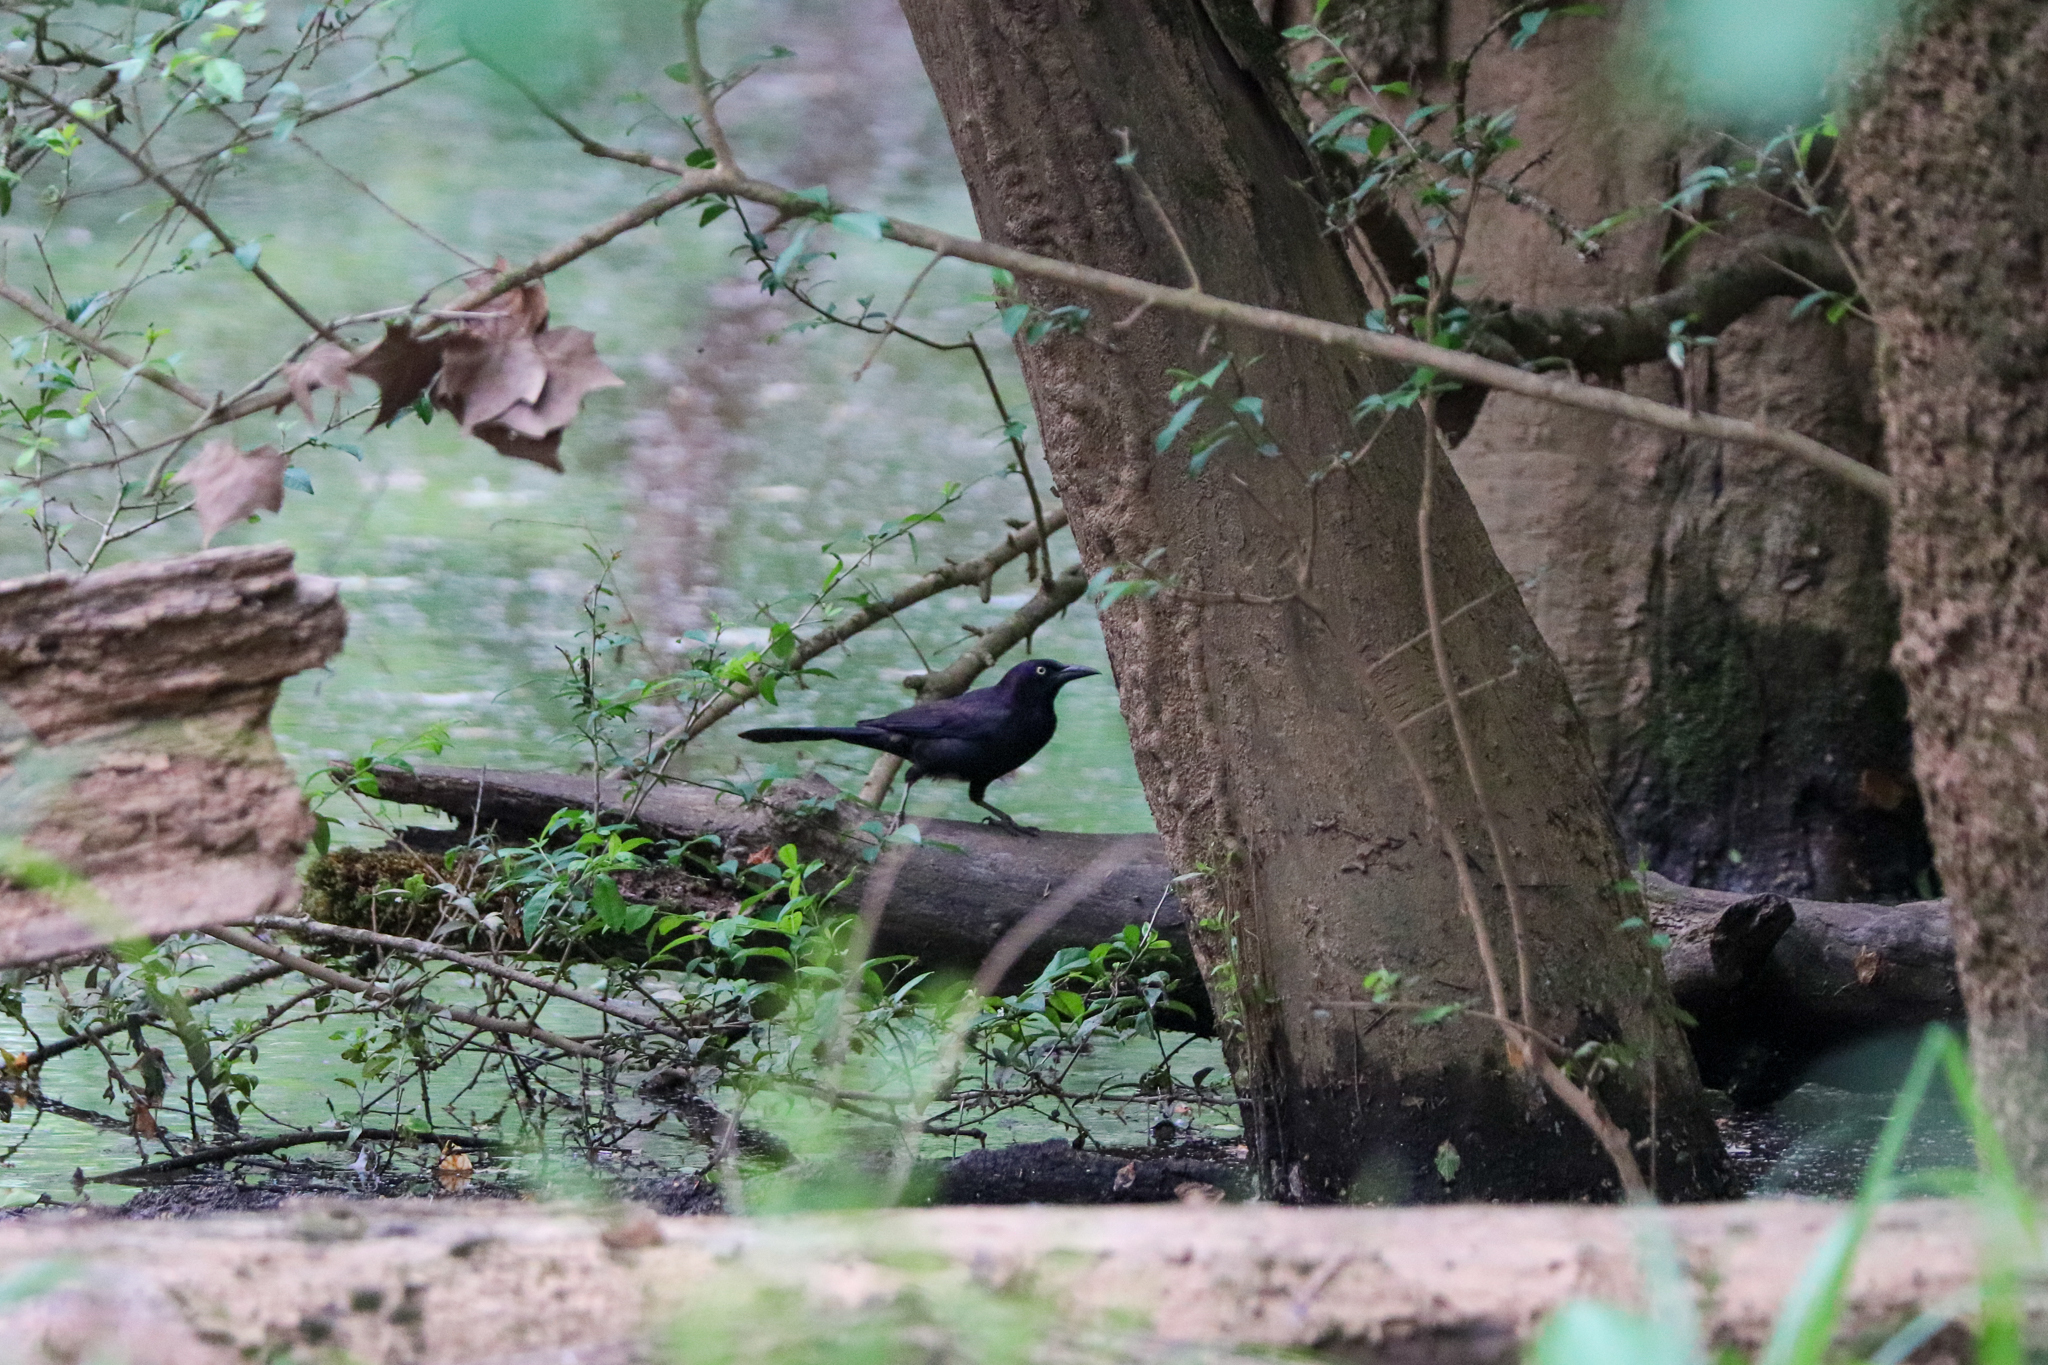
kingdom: Animalia
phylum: Chordata
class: Aves
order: Passeriformes
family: Icteridae
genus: Quiscalus
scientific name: Quiscalus quiscula
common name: Common grackle
